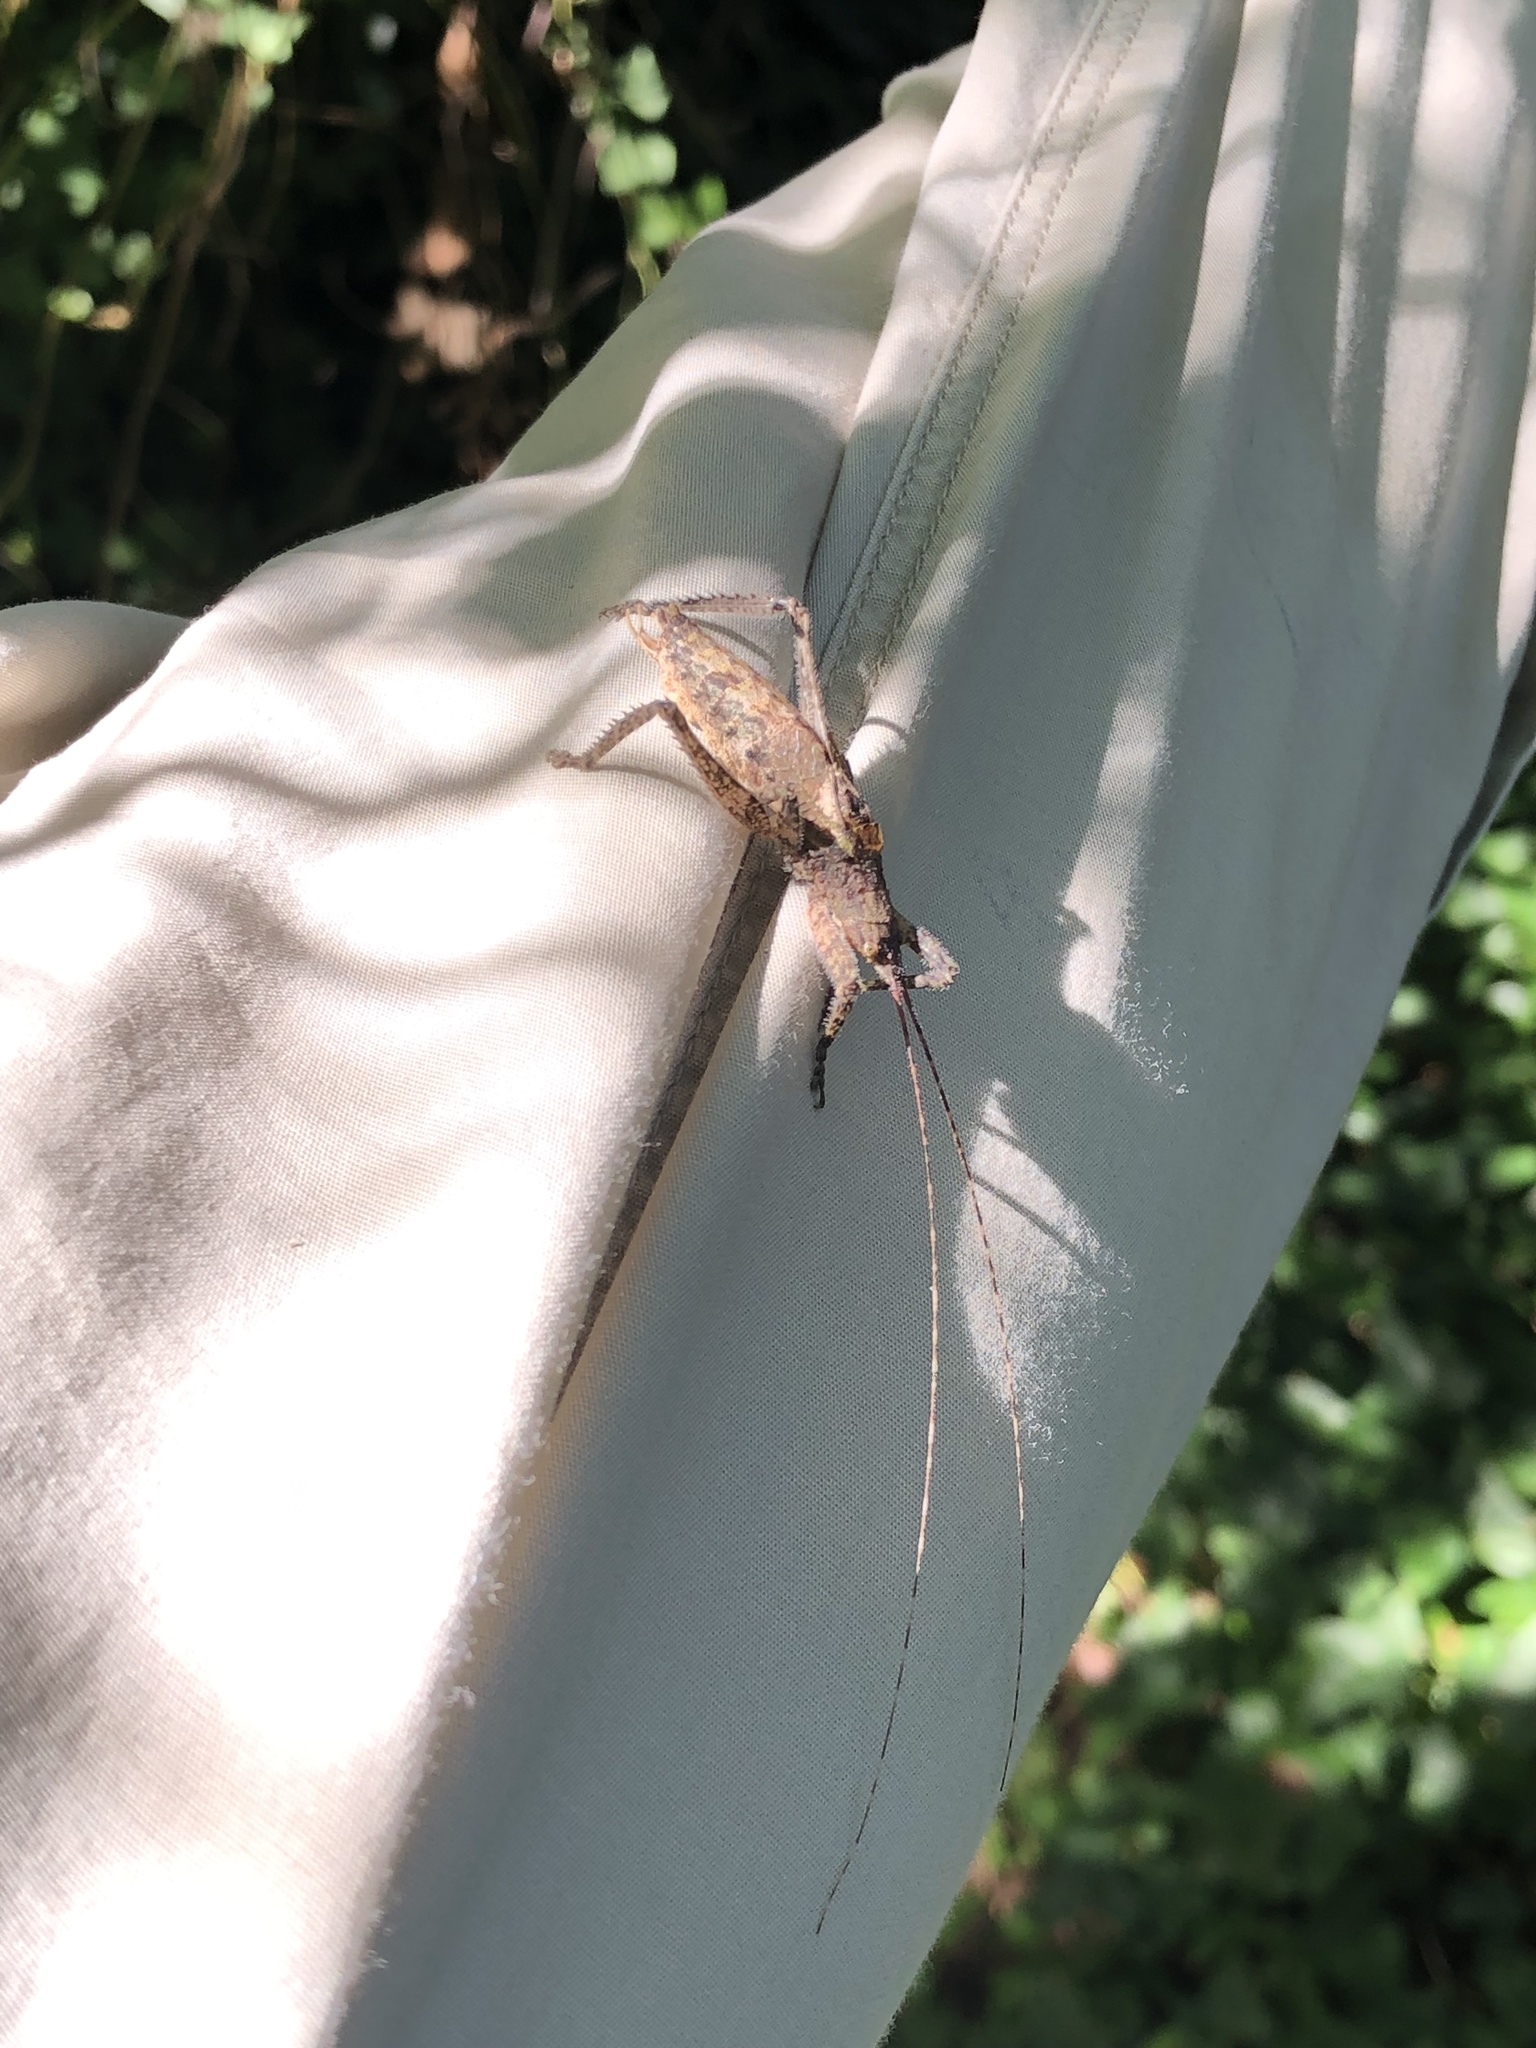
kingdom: Animalia
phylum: Arthropoda
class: Insecta
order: Orthoptera
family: Tettigoniidae
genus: Dasyscelus
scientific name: Dasyscelus normalis
